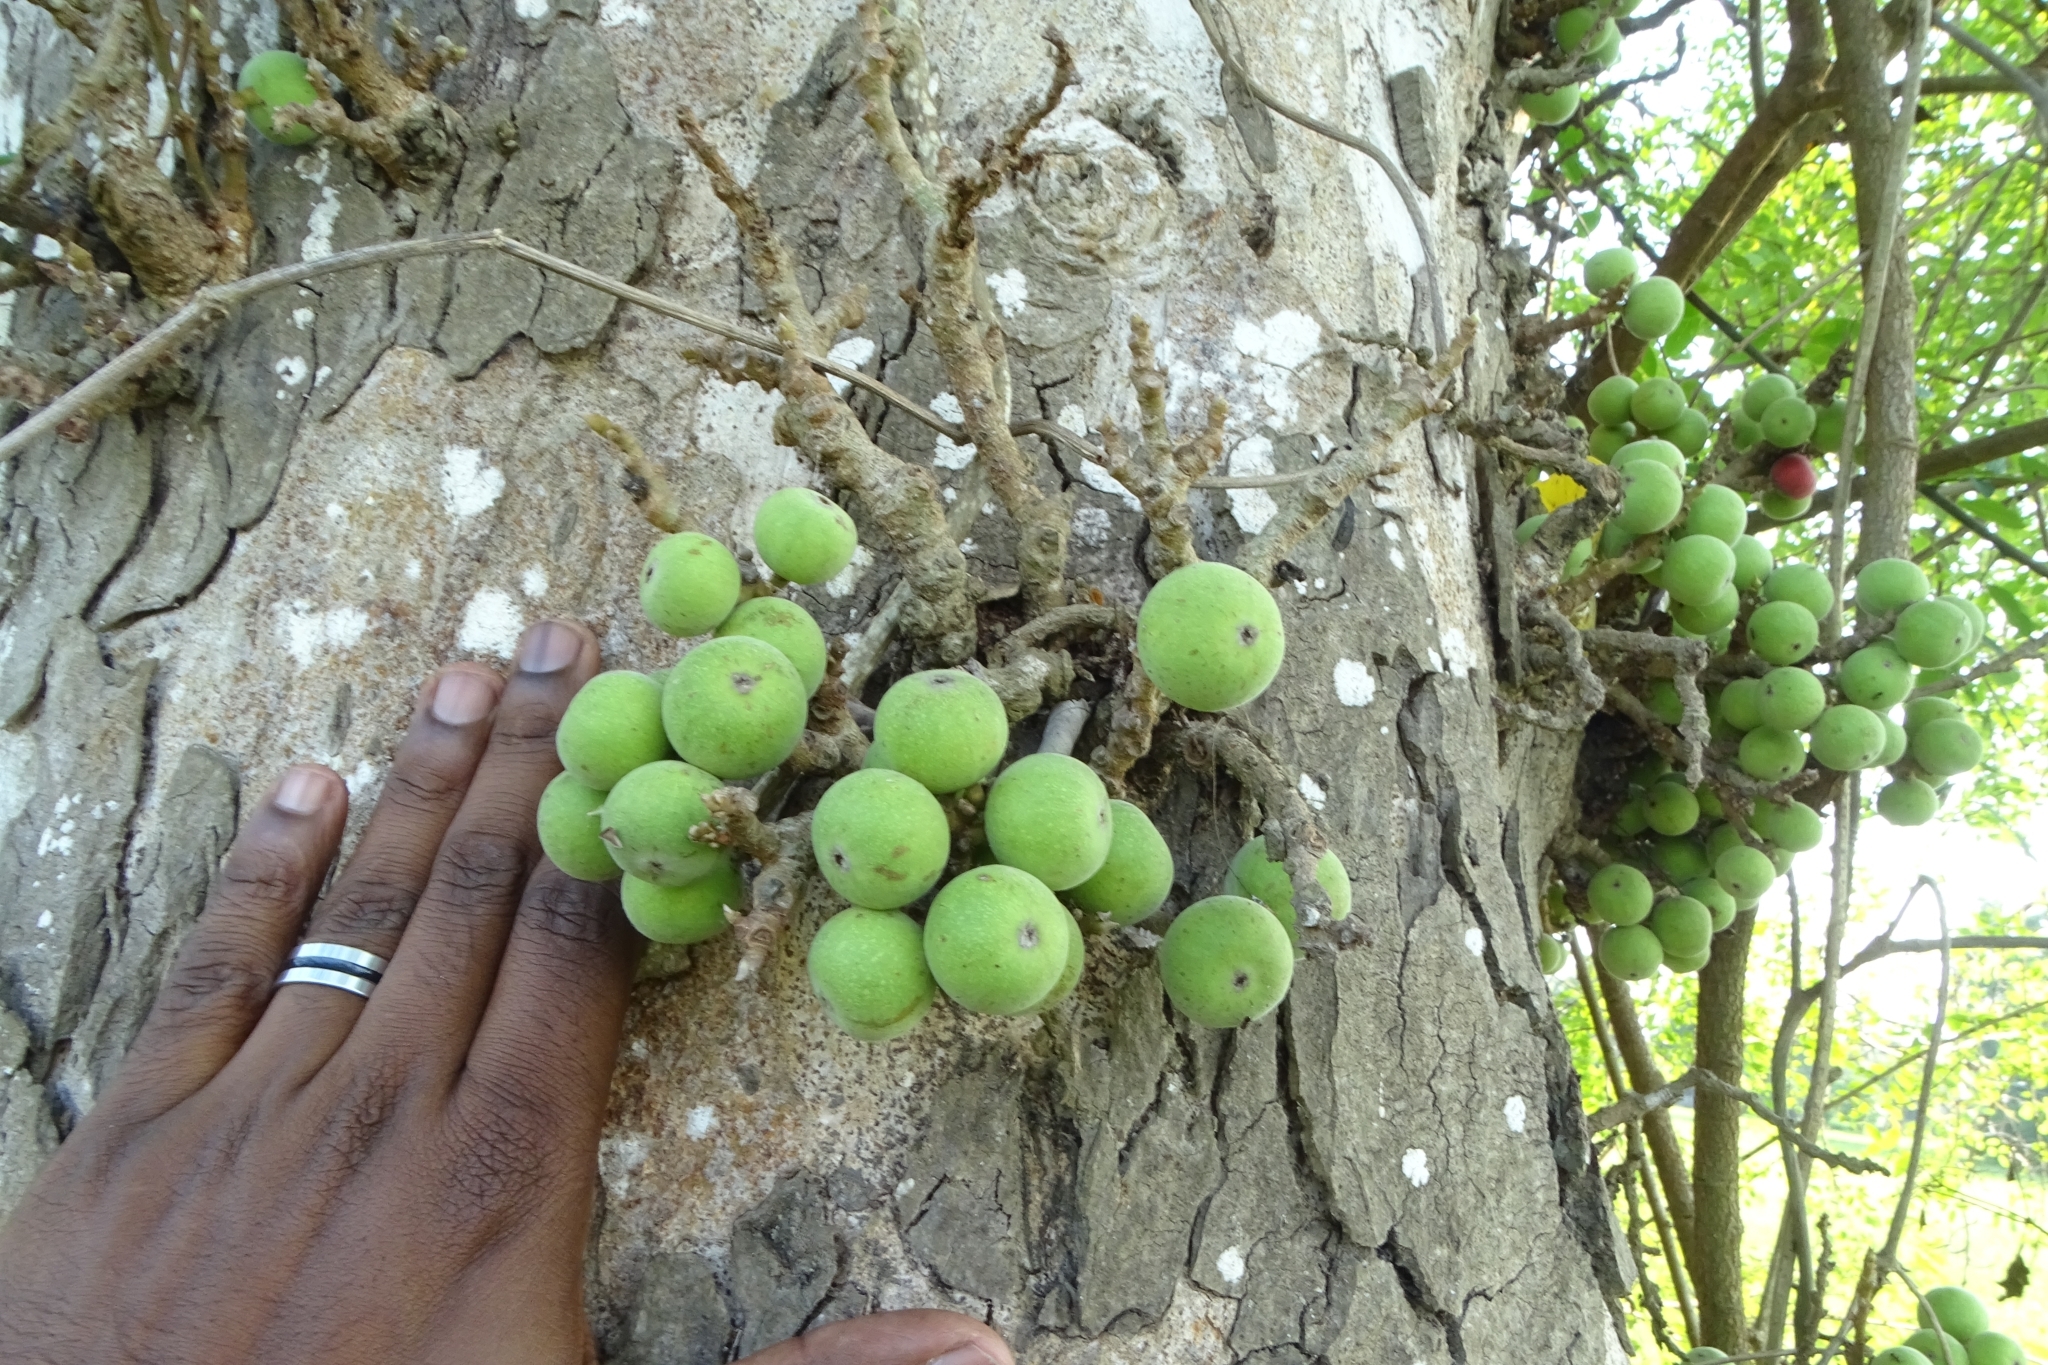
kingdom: Plantae
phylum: Tracheophyta
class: Magnoliopsida
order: Rosales
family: Moraceae
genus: Ficus
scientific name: Ficus racemosa
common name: Cluster fig
